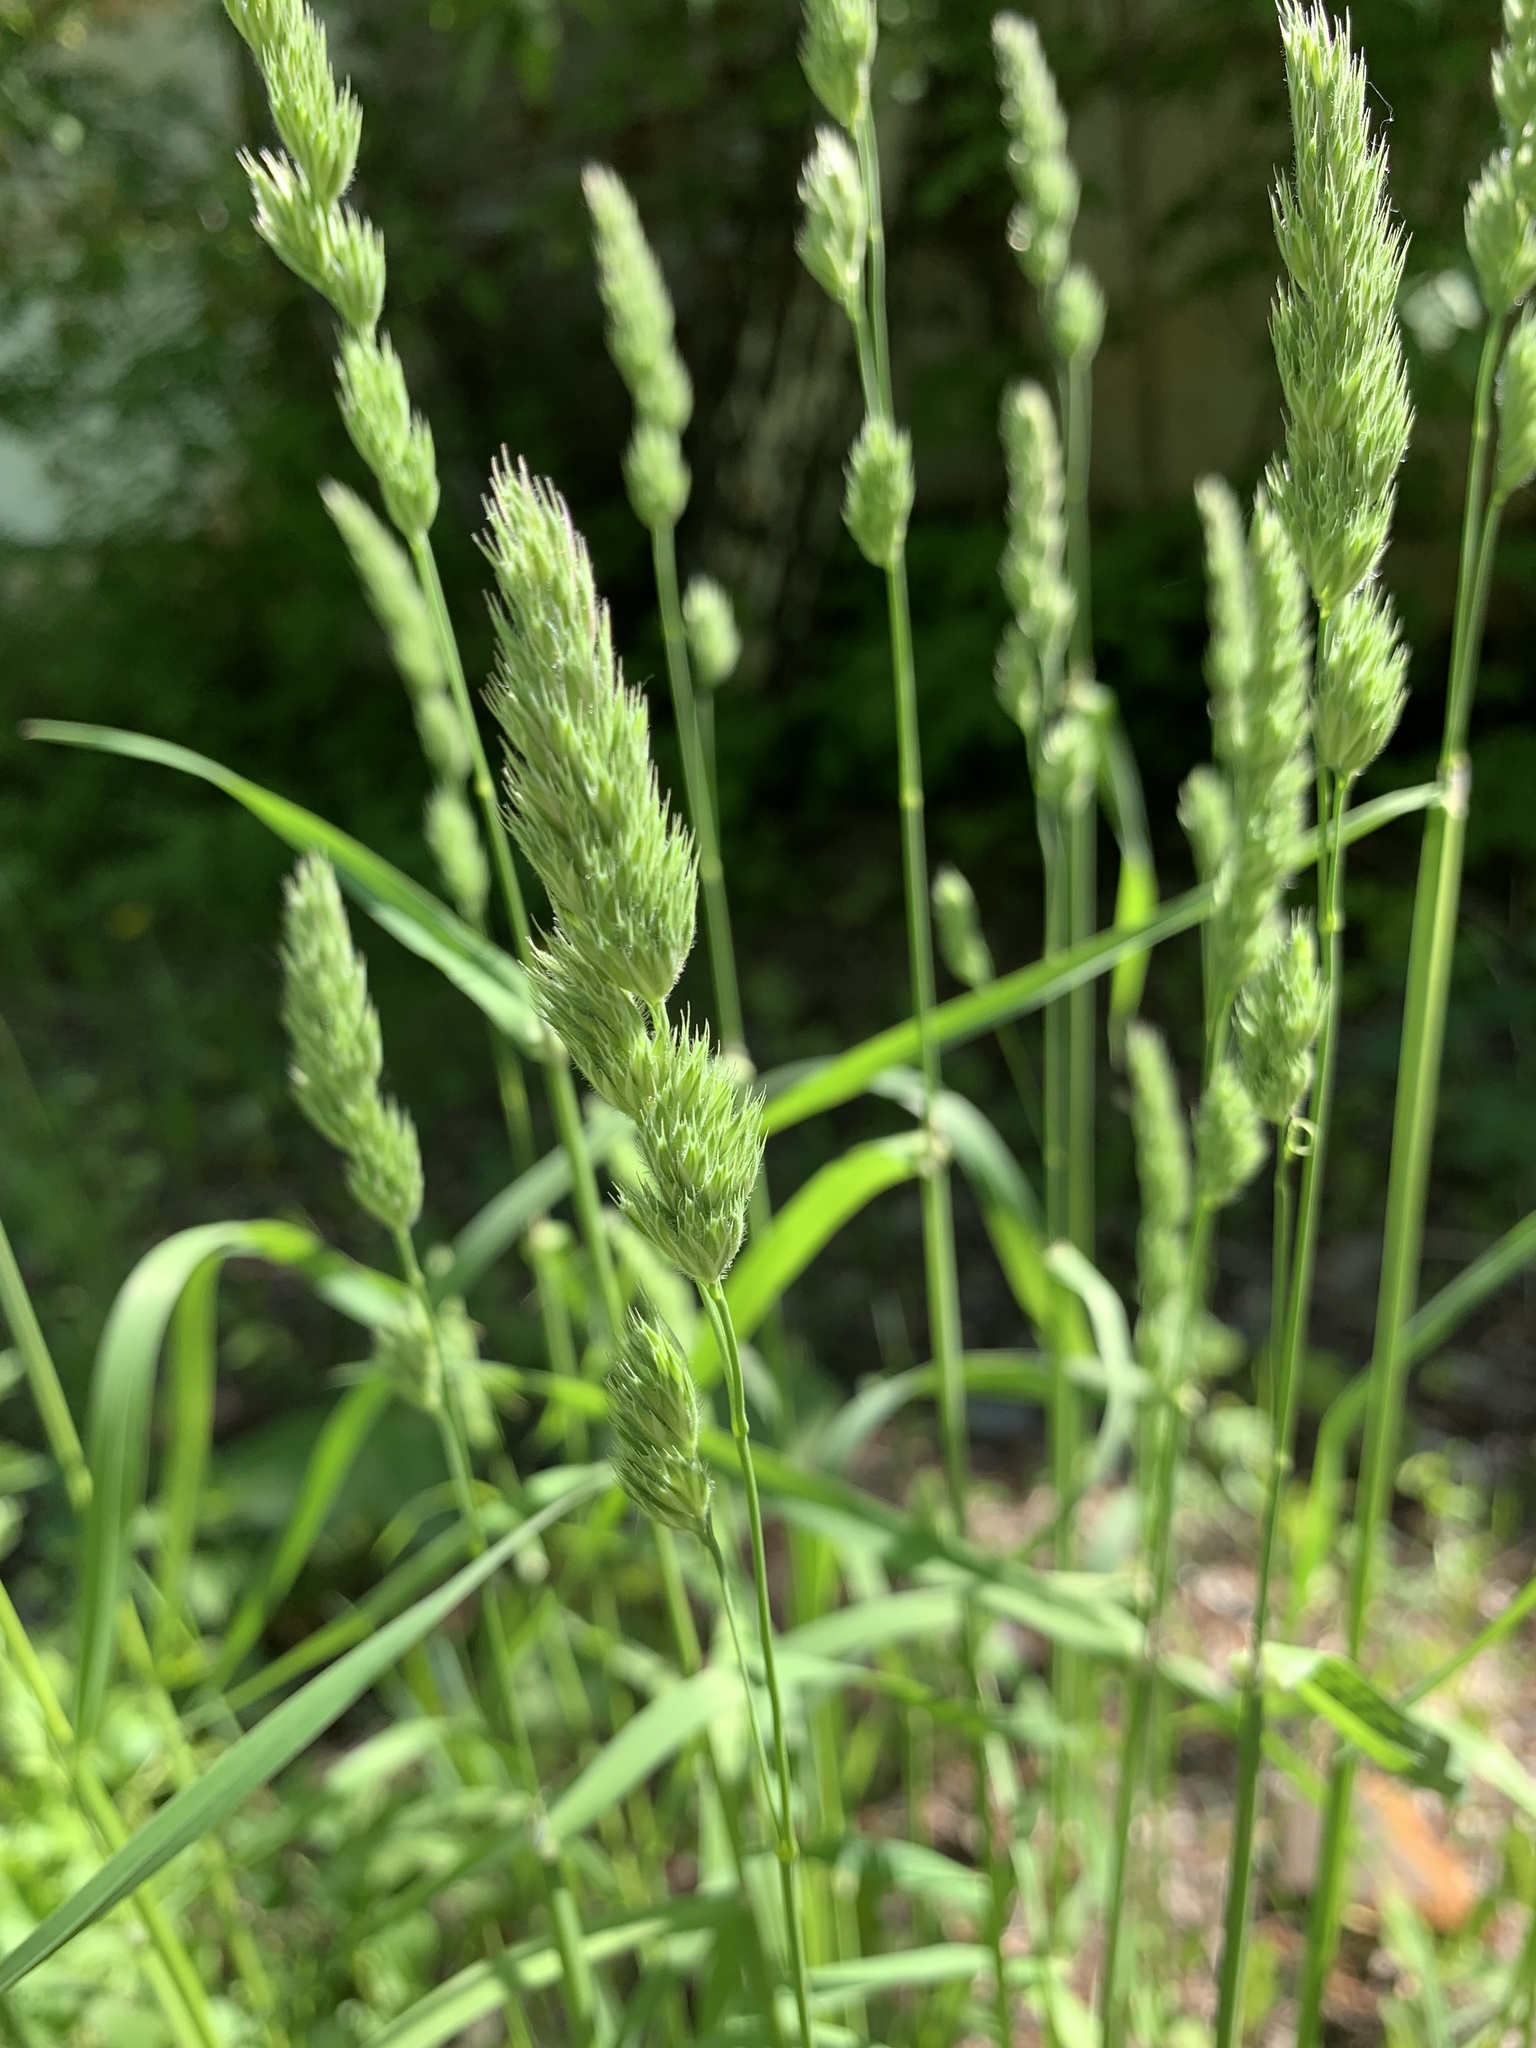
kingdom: Plantae
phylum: Tracheophyta
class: Liliopsida
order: Poales
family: Poaceae
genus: Dactylis
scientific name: Dactylis glomerata
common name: Orchardgrass
